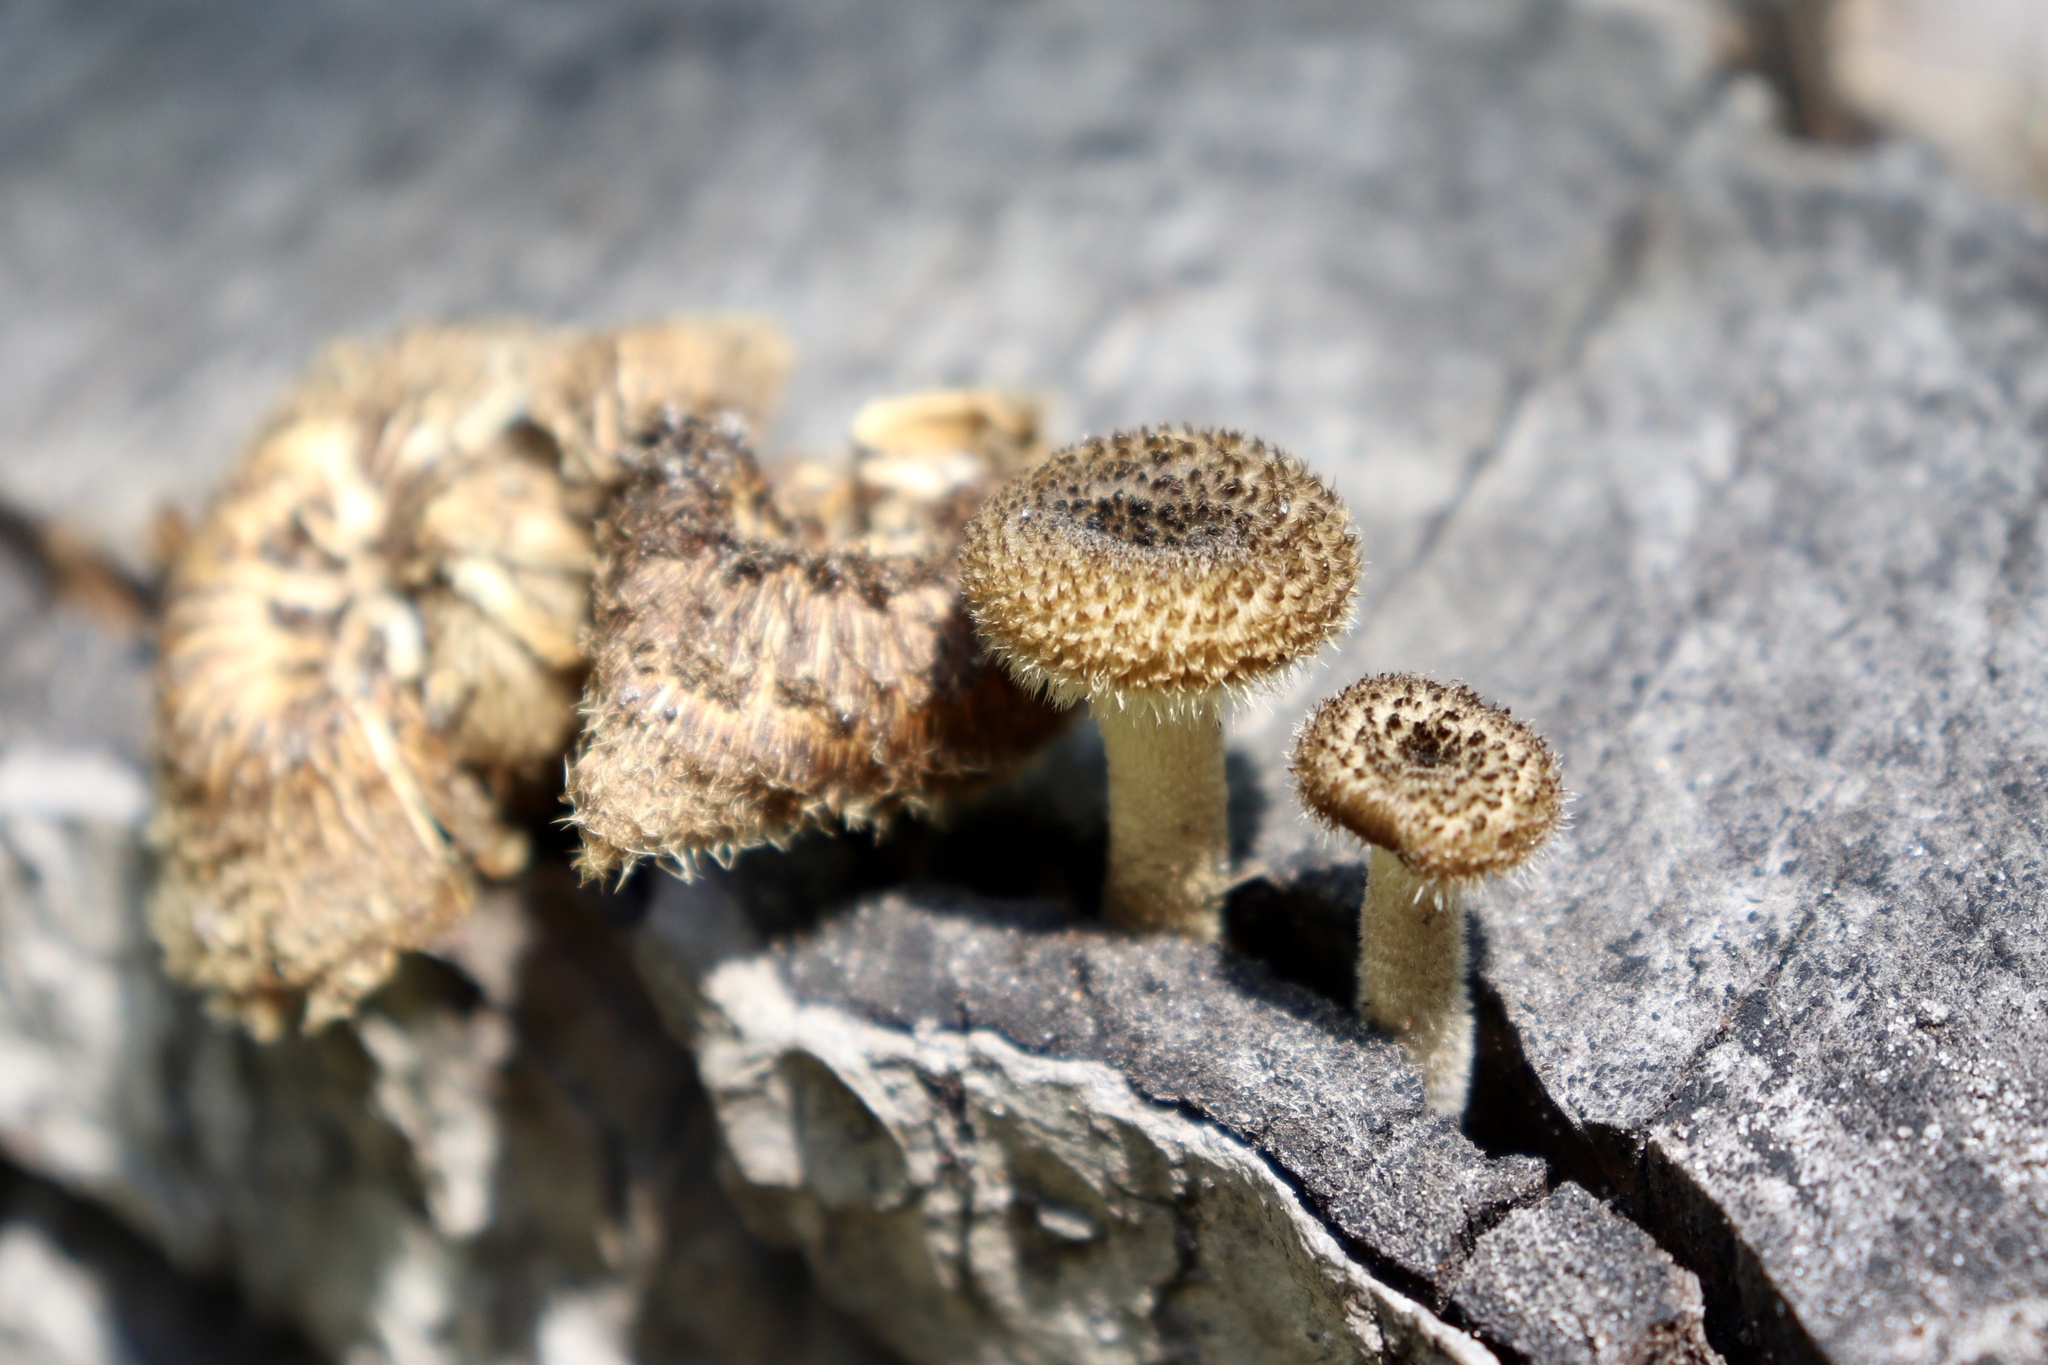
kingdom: Fungi
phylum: Basidiomycota
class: Agaricomycetes
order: Polyporales
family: Polyporaceae
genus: Lentinus
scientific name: Lentinus crinitus
